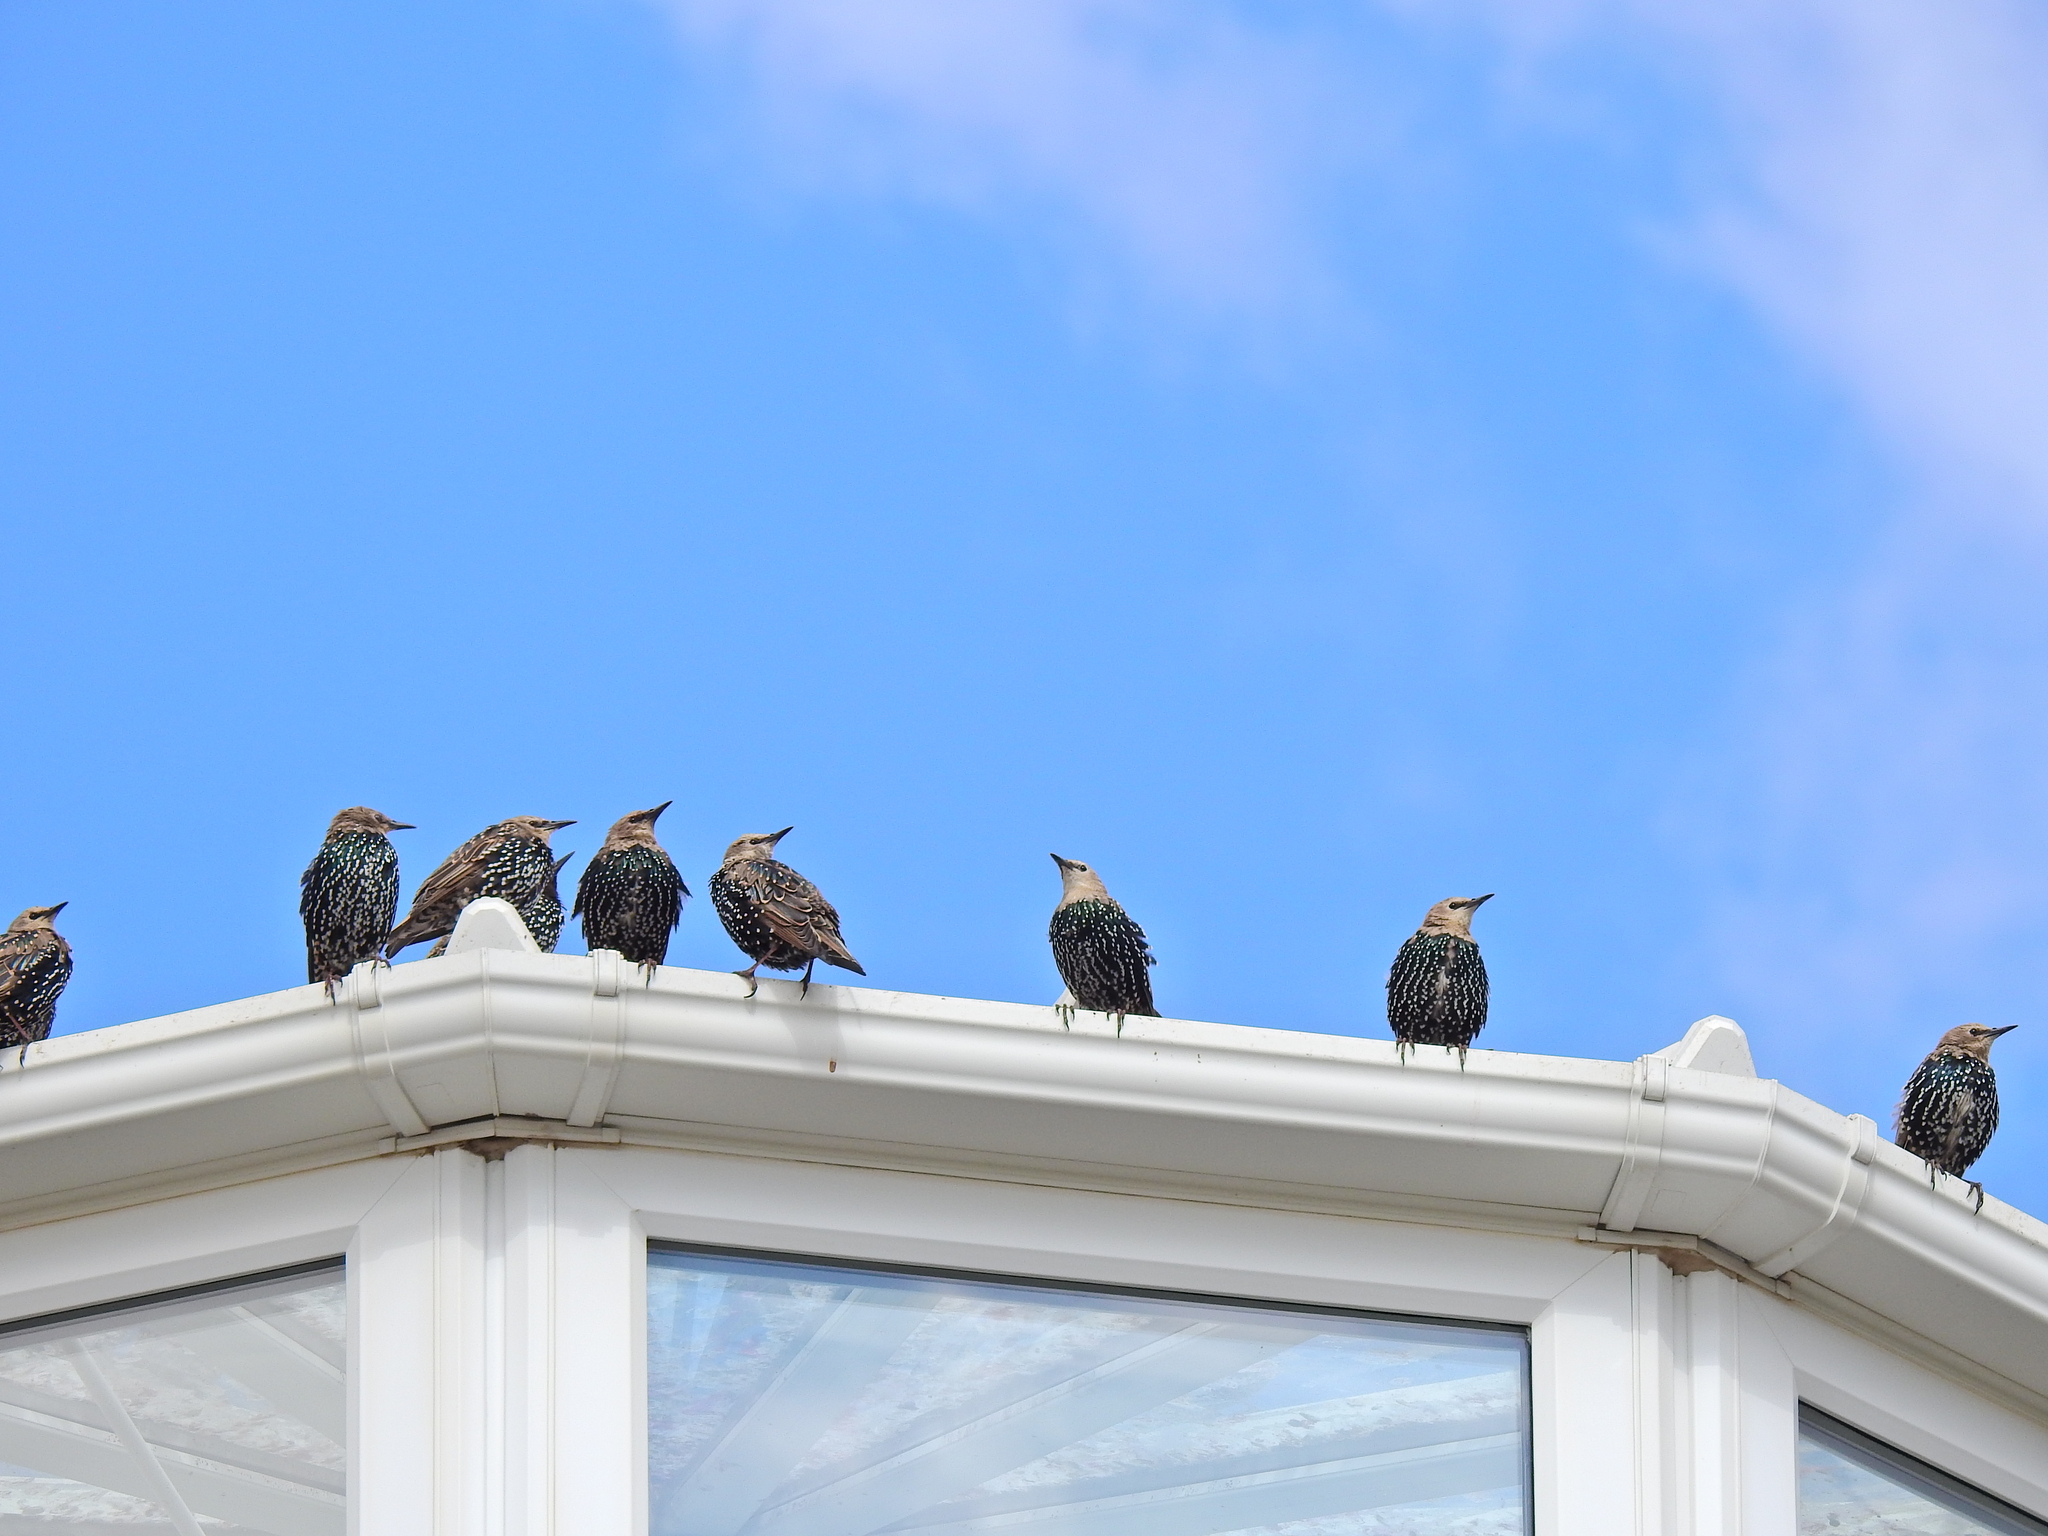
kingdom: Animalia
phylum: Chordata
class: Aves
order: Passeriformes
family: Sturnidae
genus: Sturnus
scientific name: Sturnus vulgaris
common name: Common starling
